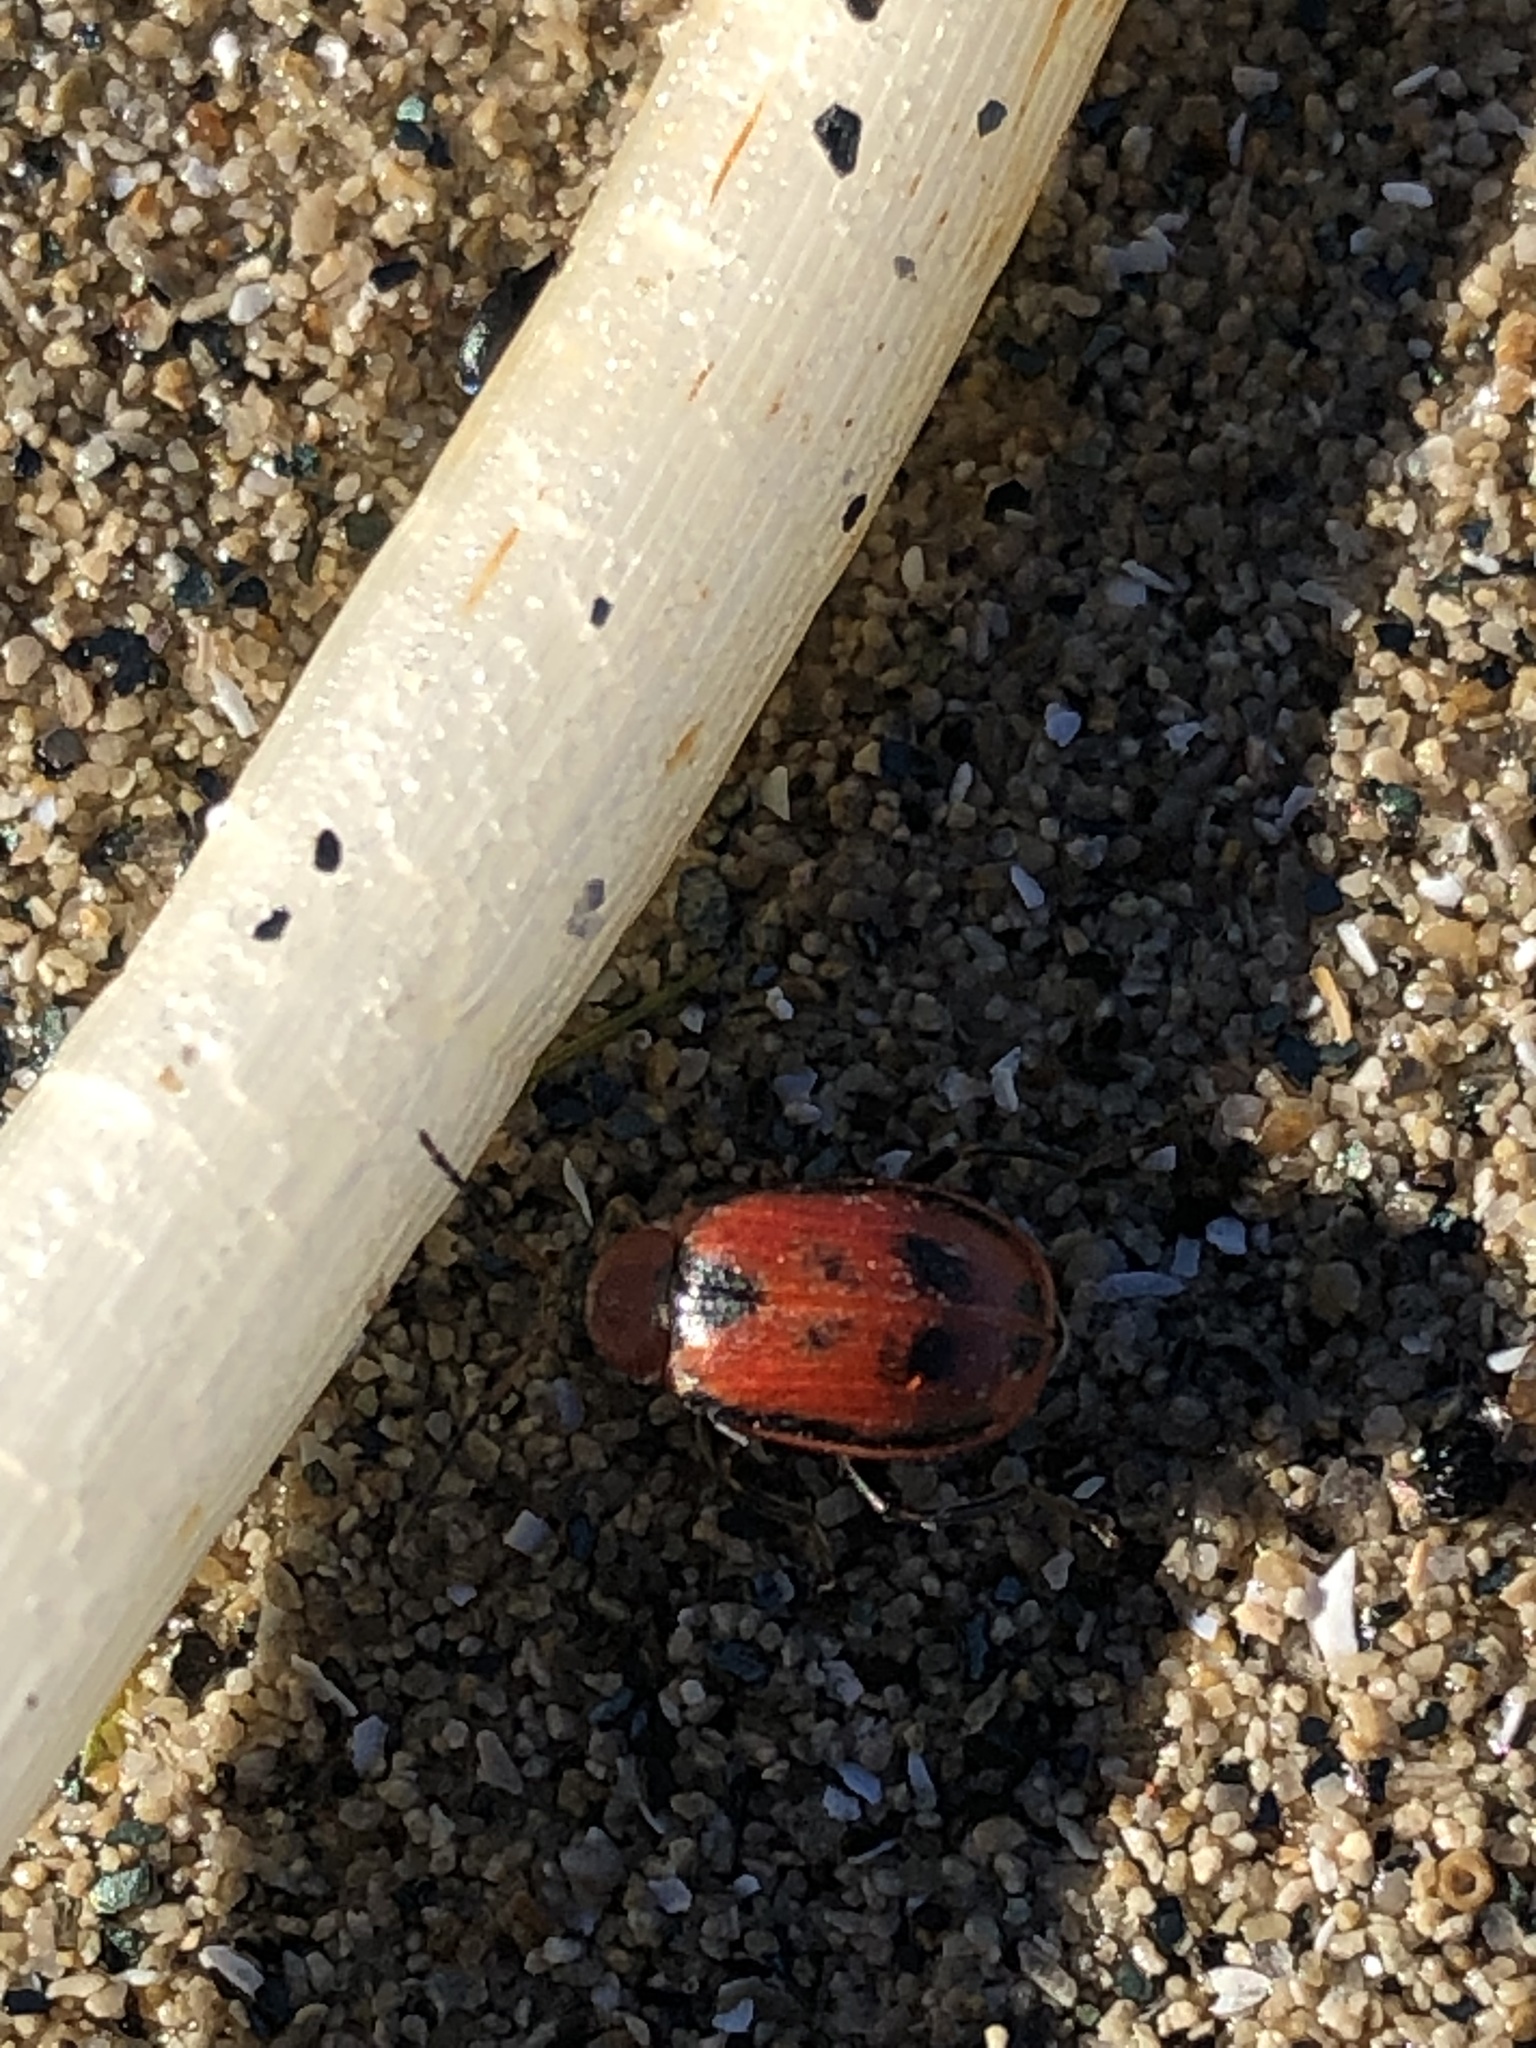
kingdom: Animalia
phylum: Arthropoda
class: Insecta
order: Coleoptera
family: Chrysomelidae
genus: Cerotoma
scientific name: Cerotoma trifurcata
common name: Bean leaf beetle
